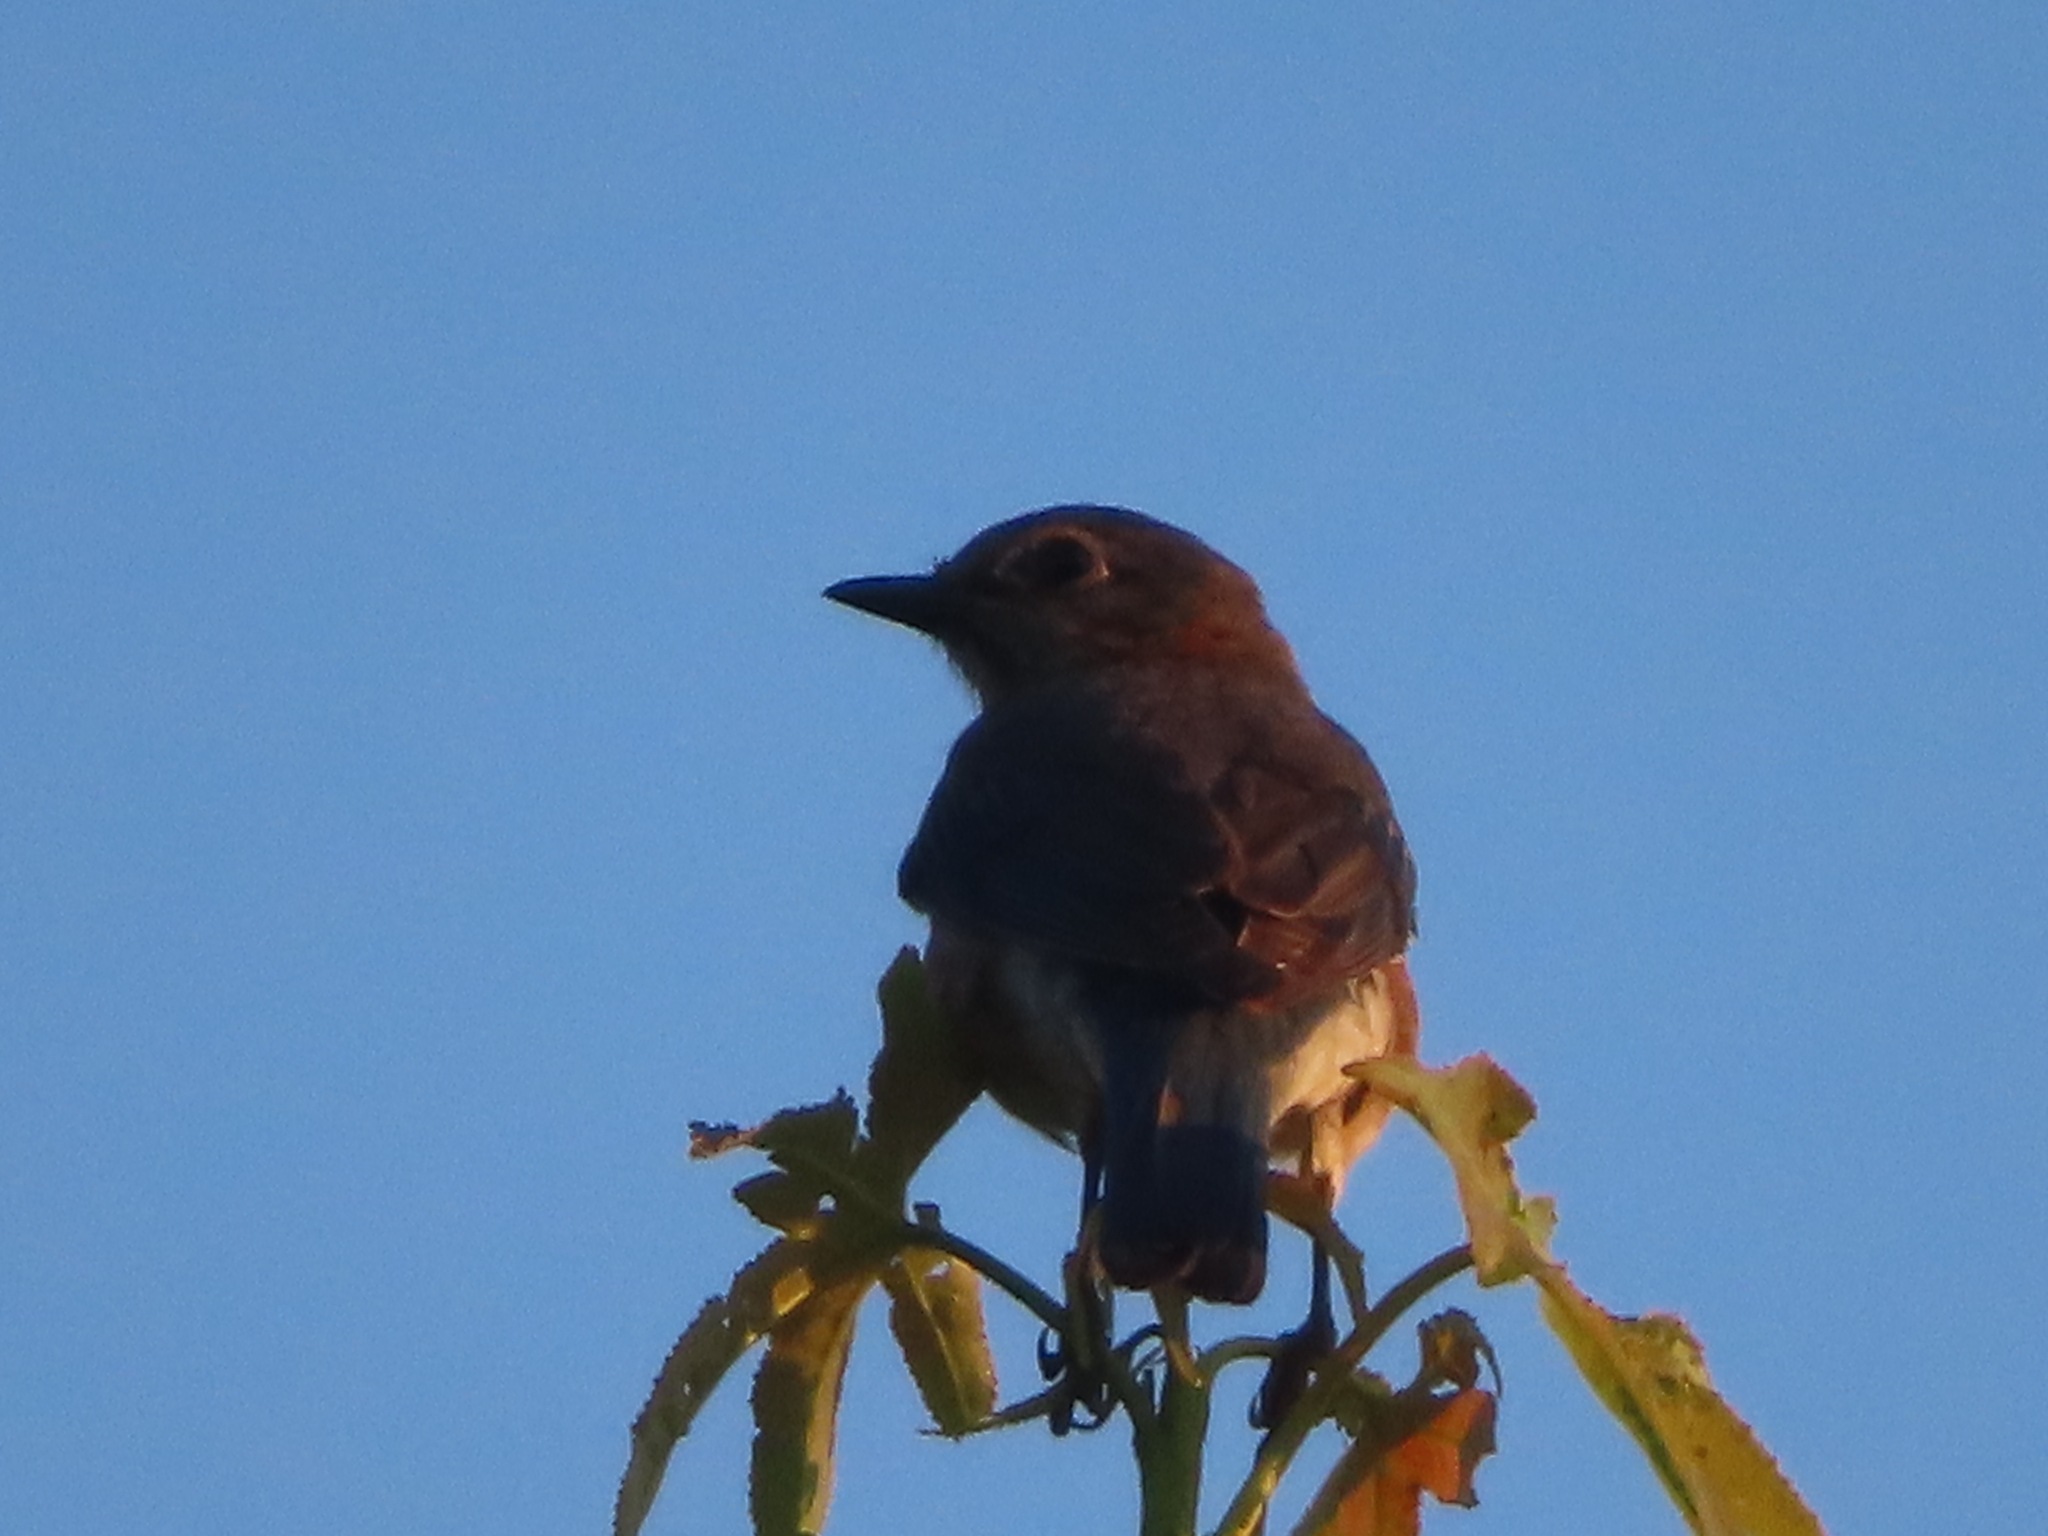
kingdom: Animalia
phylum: Chordata
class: Aves
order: Passeriformes
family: Turdidae
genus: Sialia
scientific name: Sialia sialis
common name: Eastern bluebird
